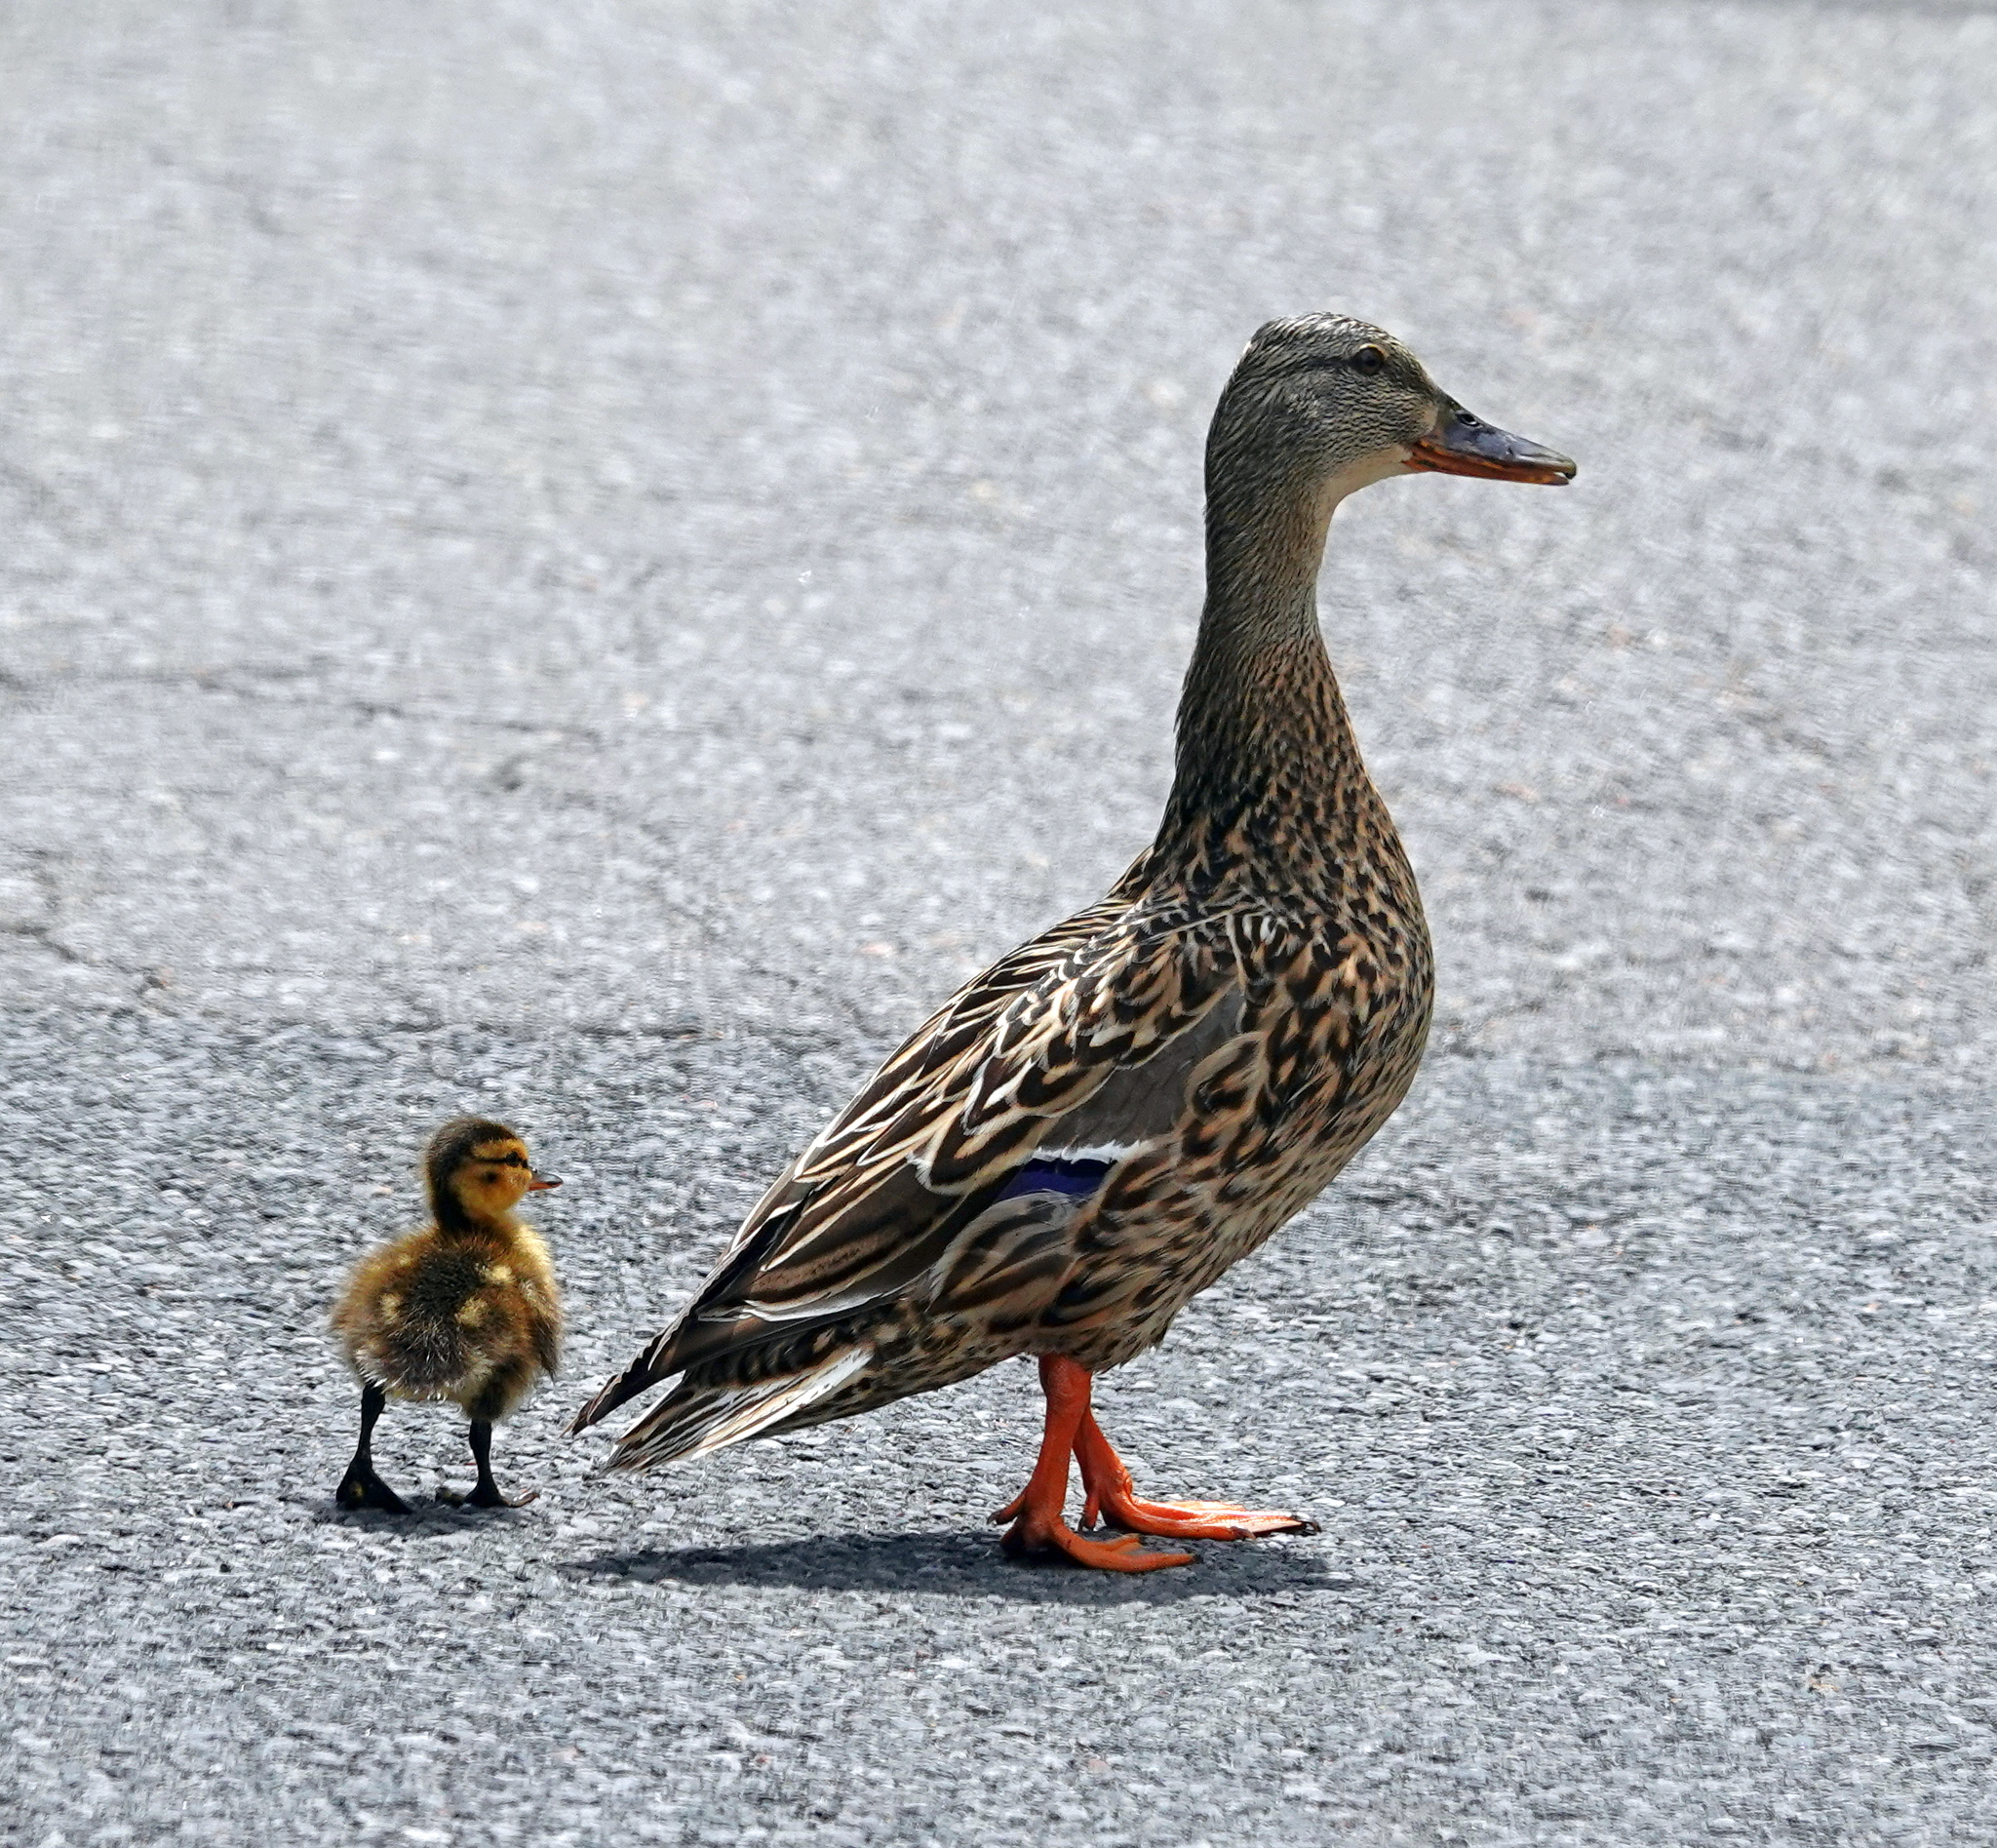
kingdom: Animalia
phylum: Chordata
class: Aves
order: Anseriformes
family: Anatidae
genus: Anas
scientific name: Anas platyrhynchos
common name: Mallard
